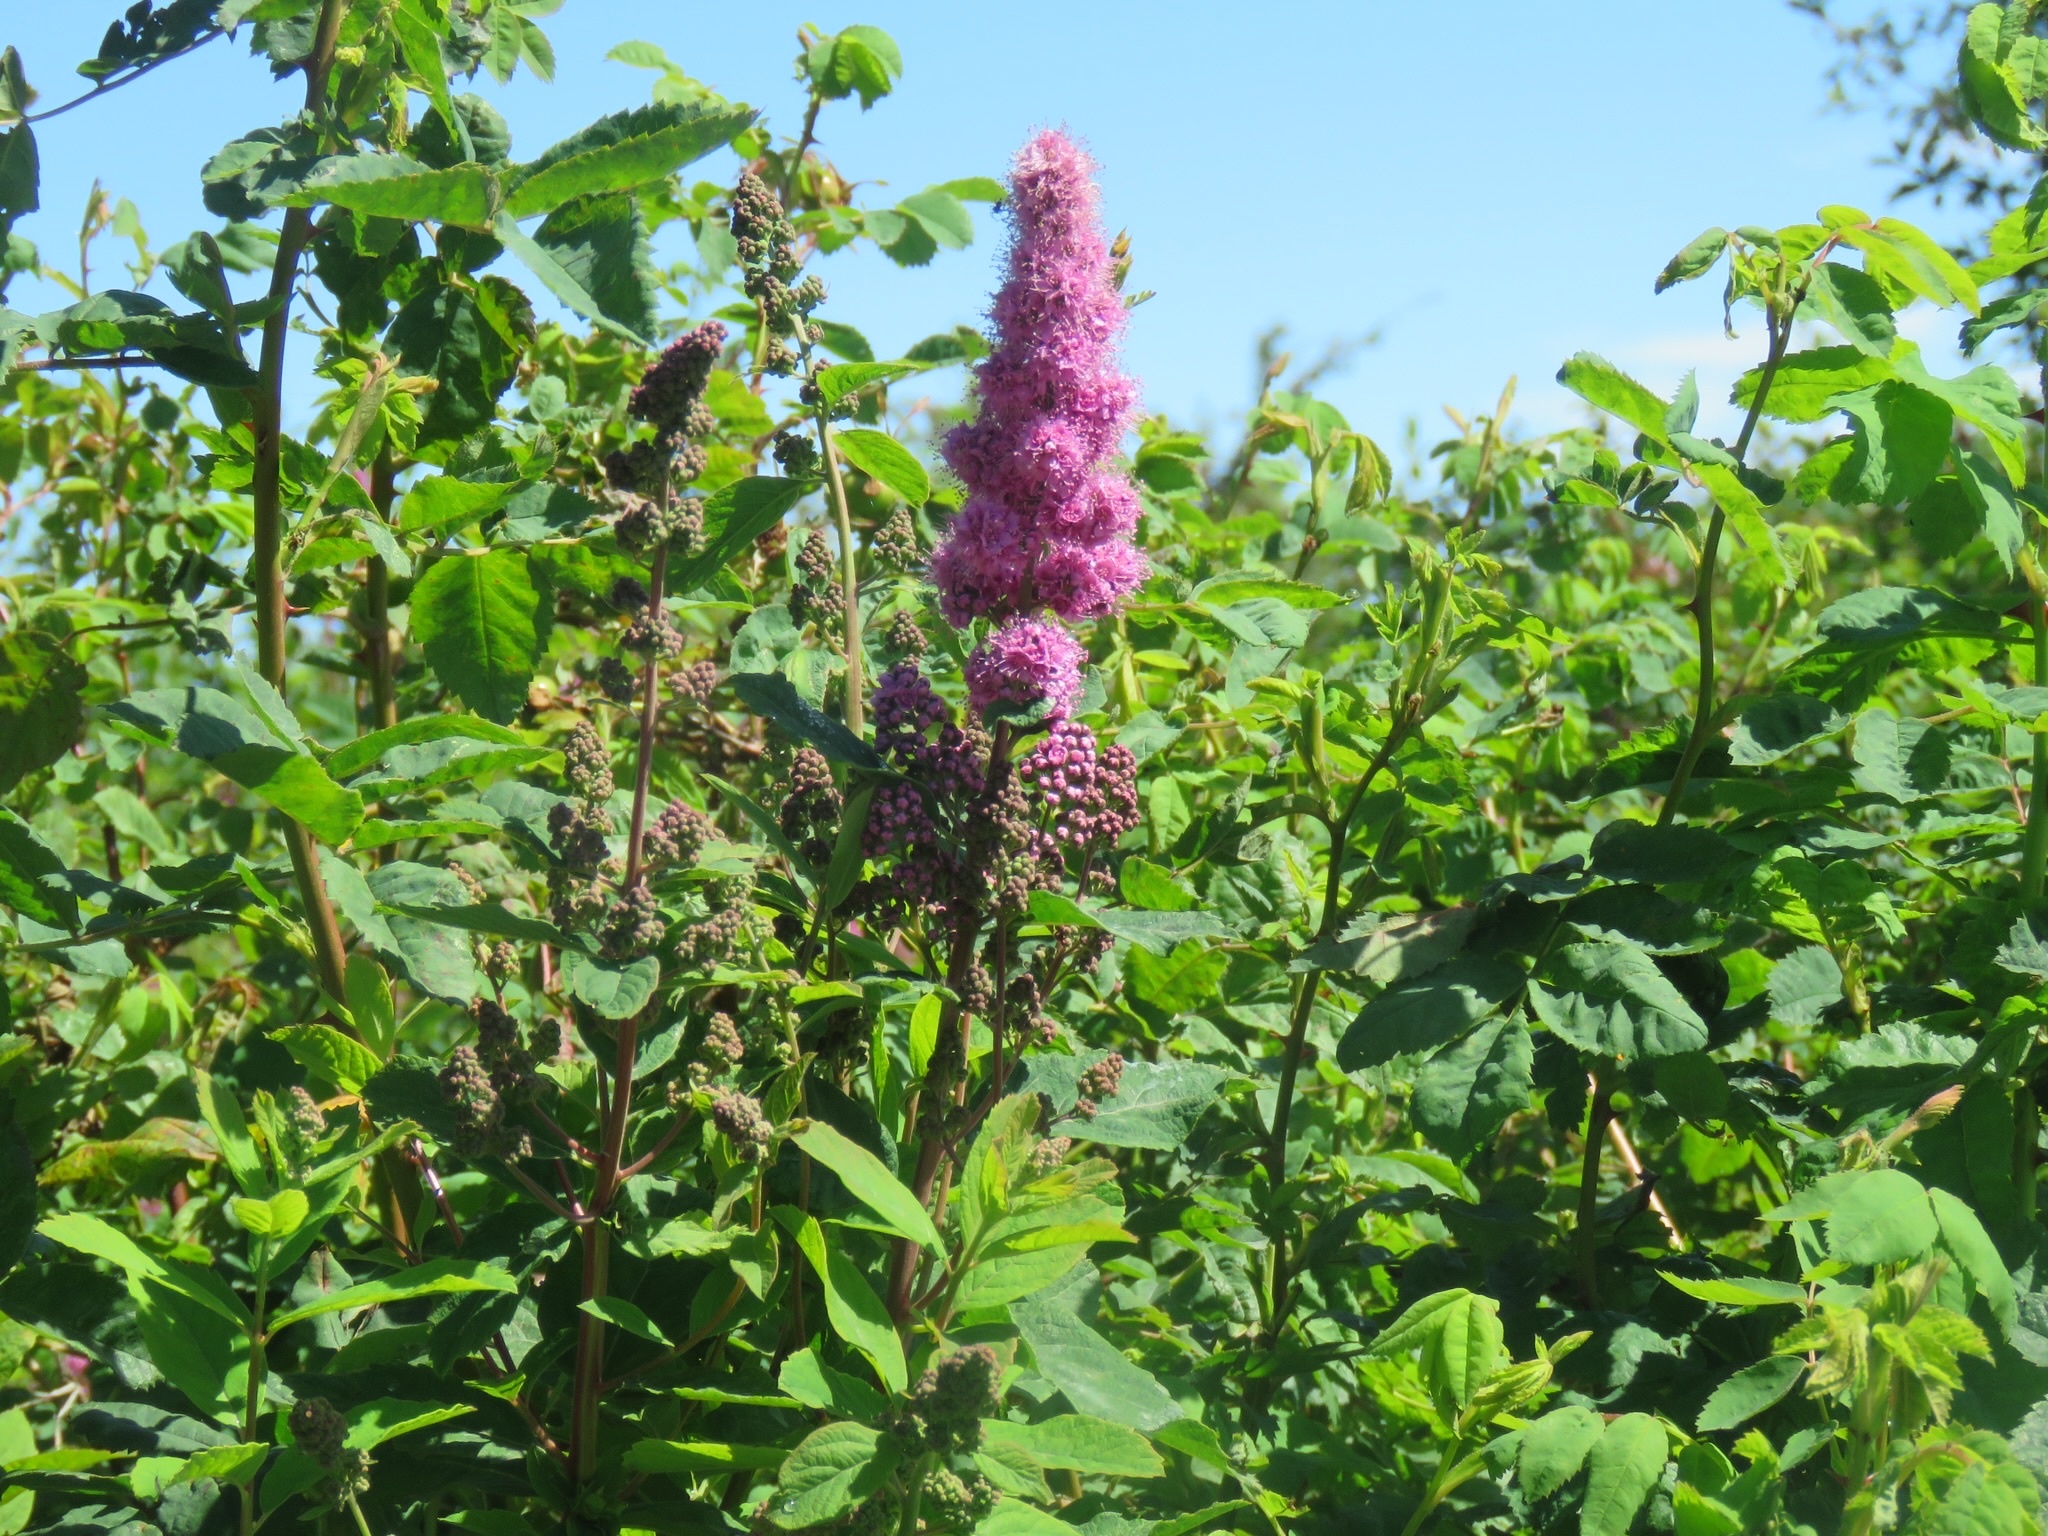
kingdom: Plantae
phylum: Tracheophyta
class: Magnoliopsida
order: Rosales
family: Rosaceae
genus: Spiraea
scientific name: Spiraea douglasii
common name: Steeplebush
